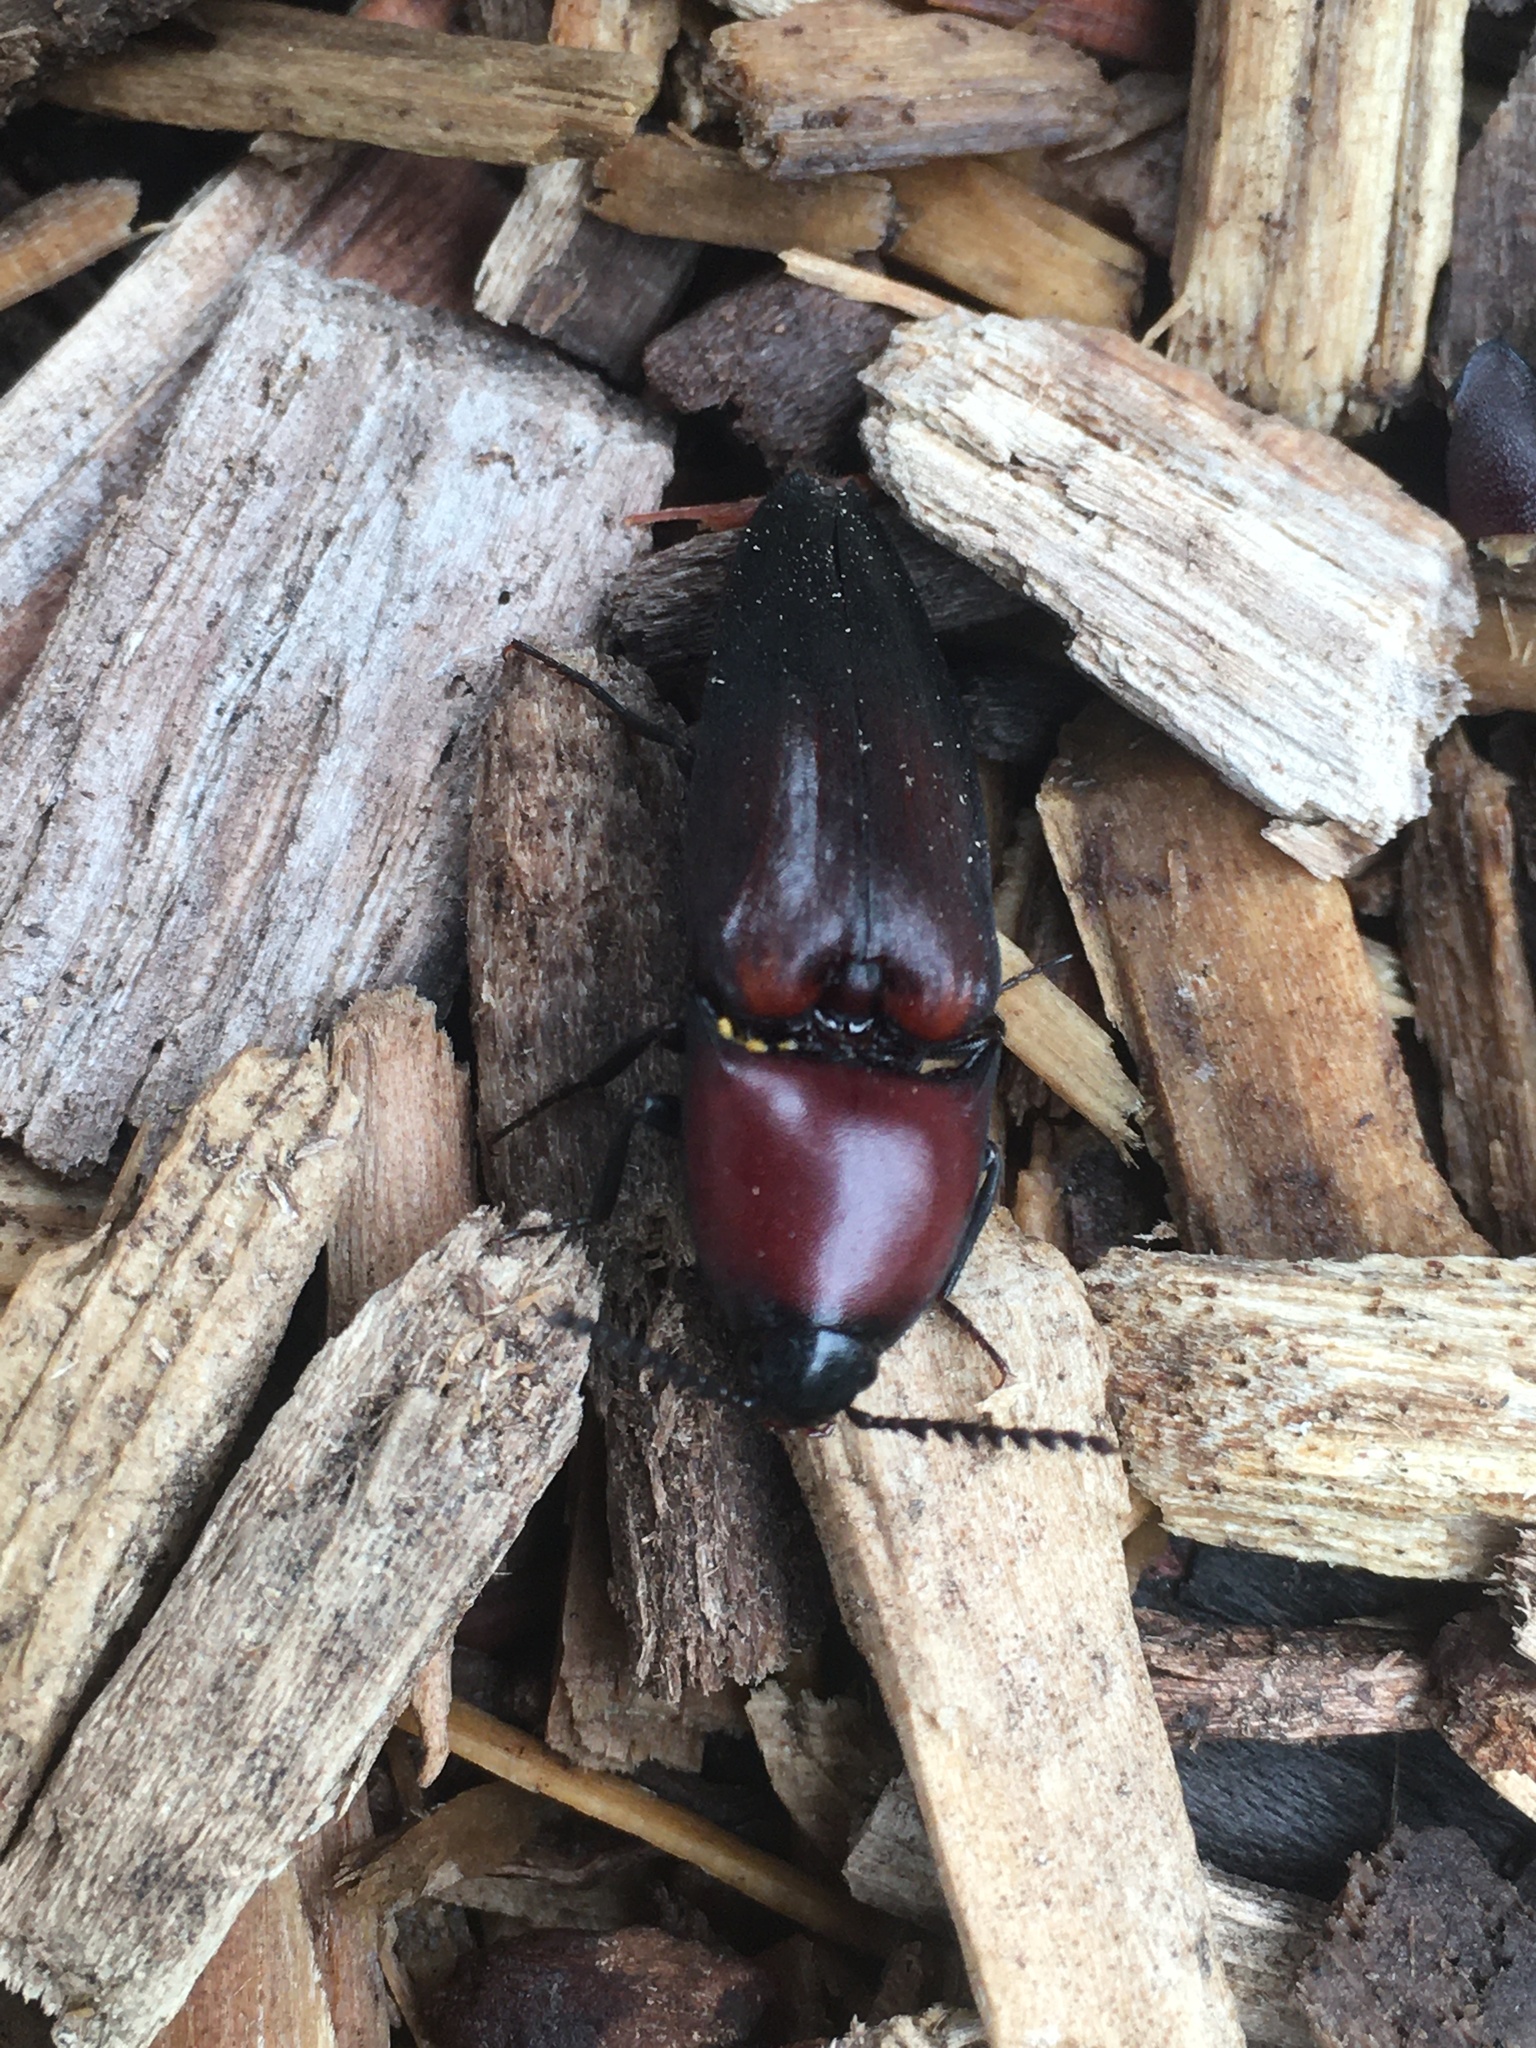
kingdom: Animalia
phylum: Arthropoda
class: Insecta
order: Coleoptera
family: Elateridae
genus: Parallelostethus
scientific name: Parallelostethus attenuatus
